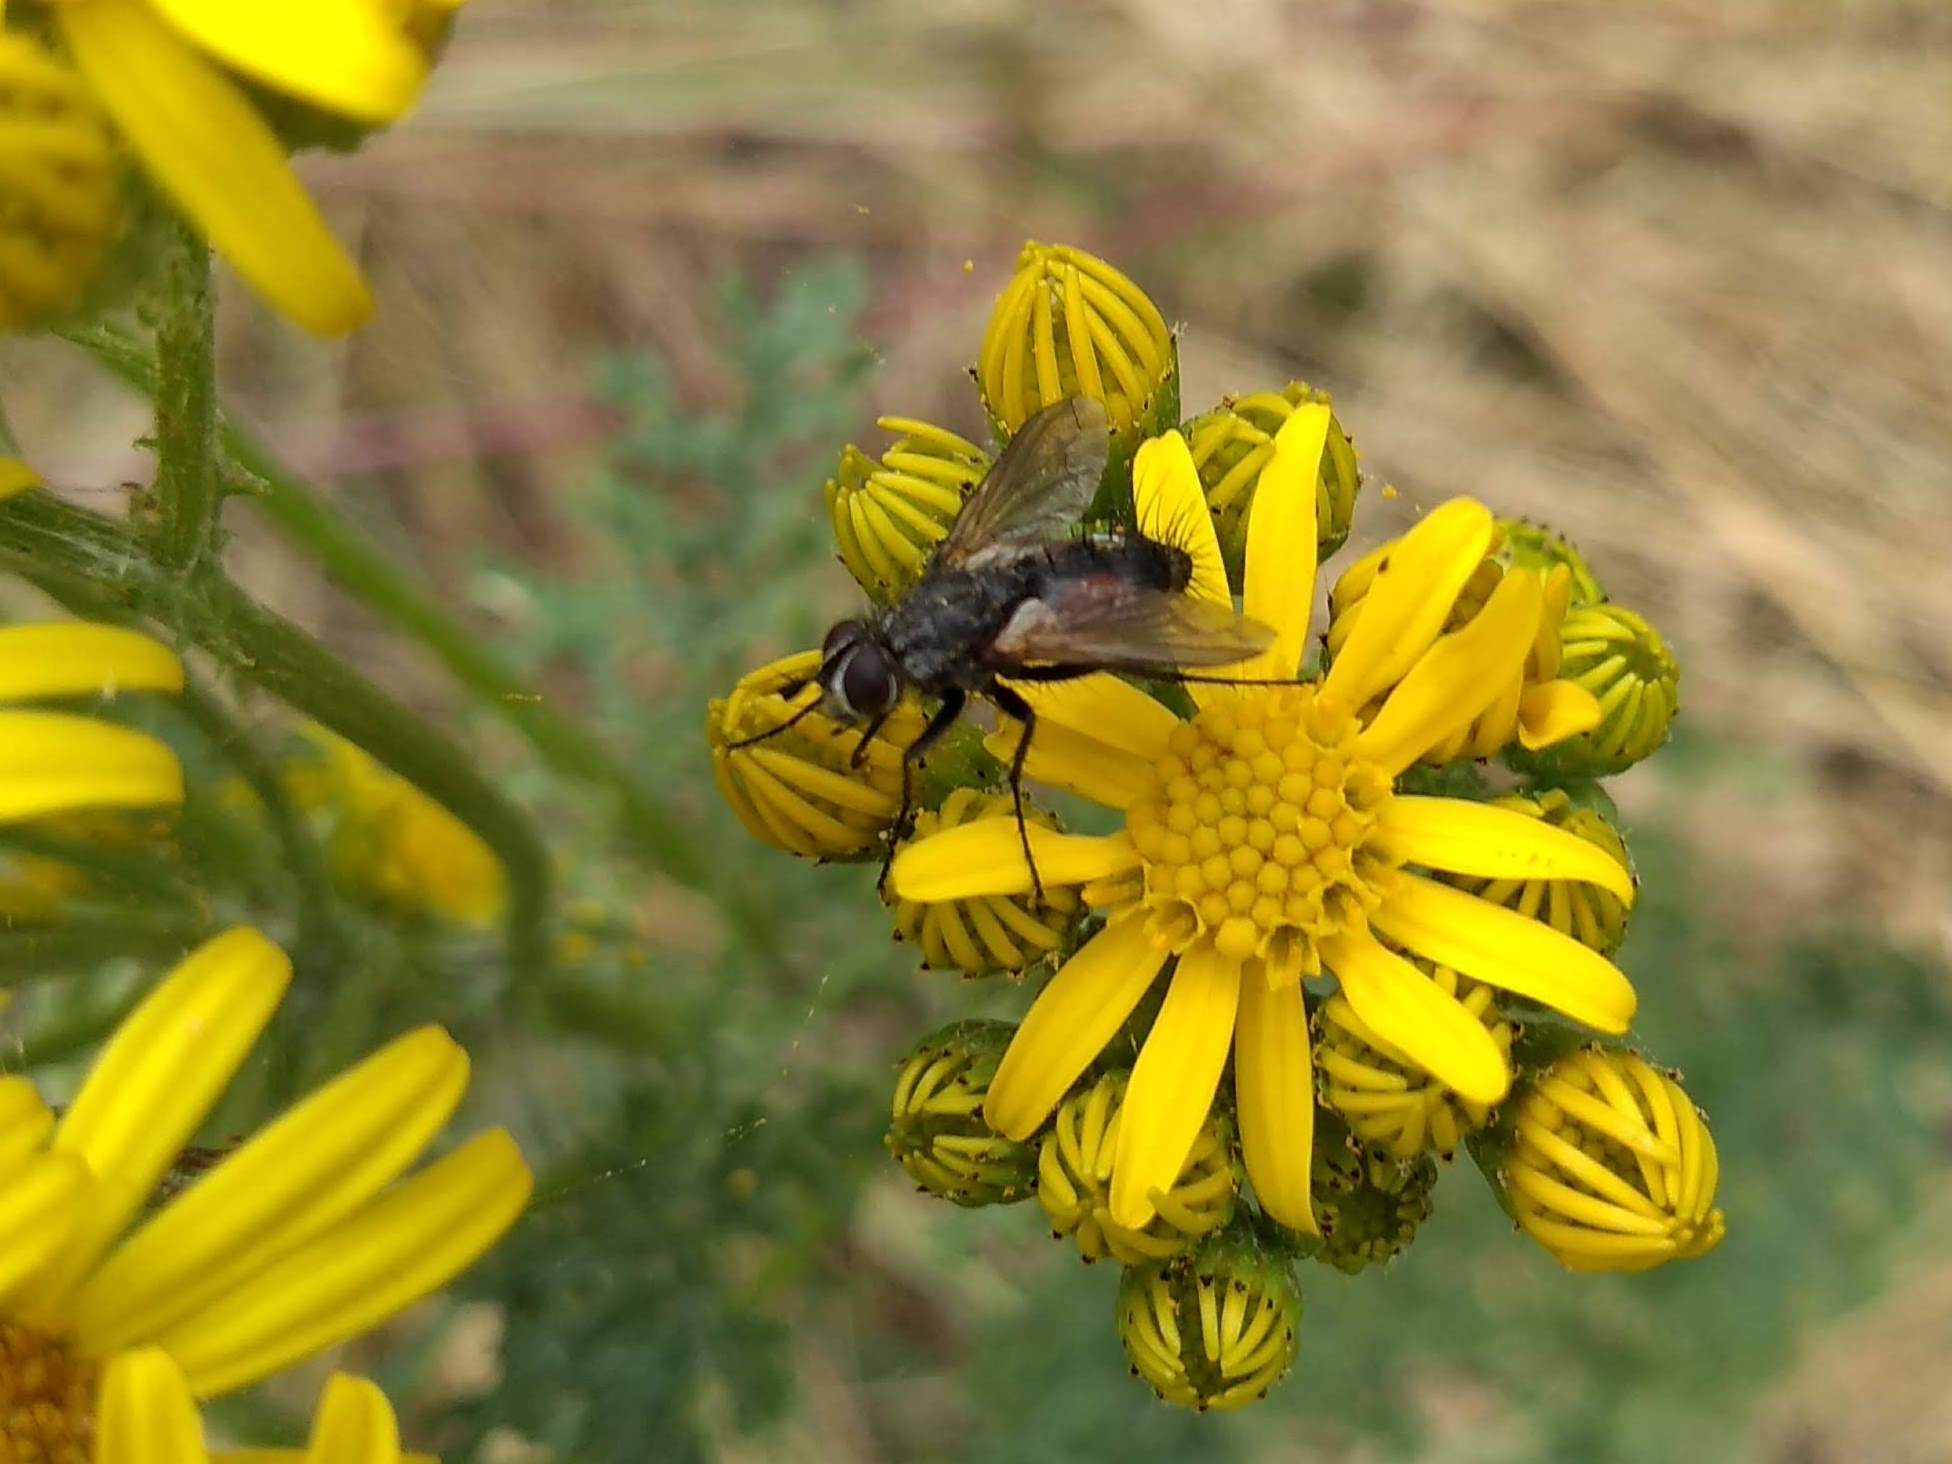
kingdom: Animalia
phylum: Arthropoda
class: Insecta
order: Diptera
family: Tachinidae
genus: Eriothrix
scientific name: Eriothrix rufomaculatus
